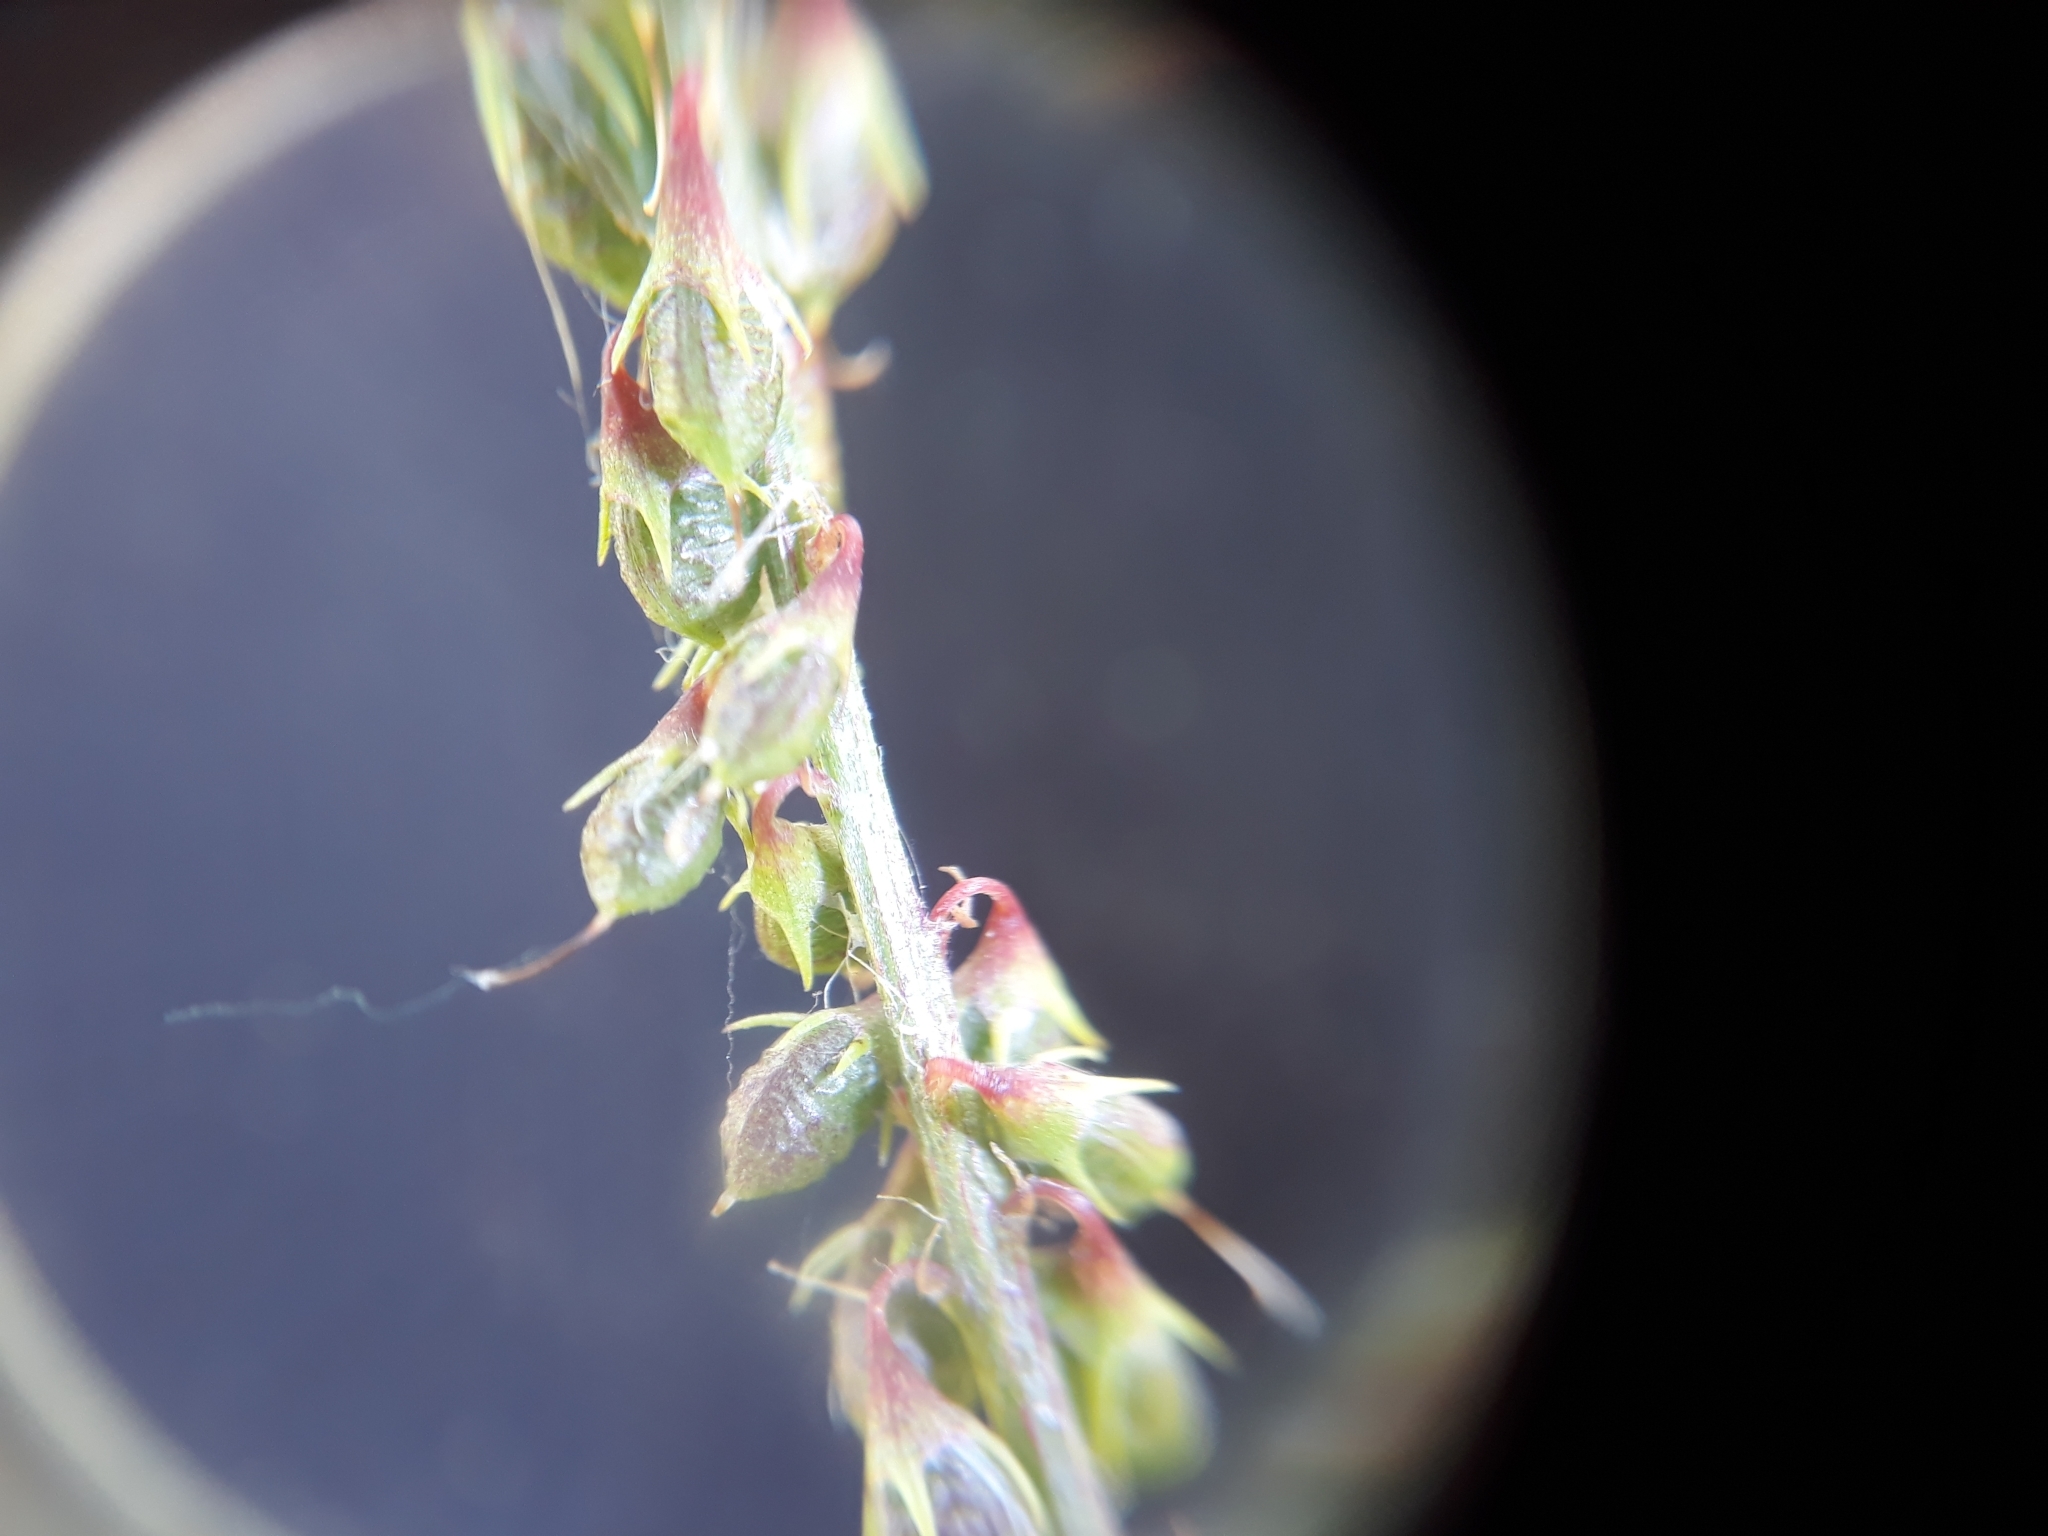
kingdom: Plantae
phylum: Tracheophyta
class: Magnoliopsida
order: Fabales
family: Fabaceae
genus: Melilotus
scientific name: Melilotus albus
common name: White melilot
